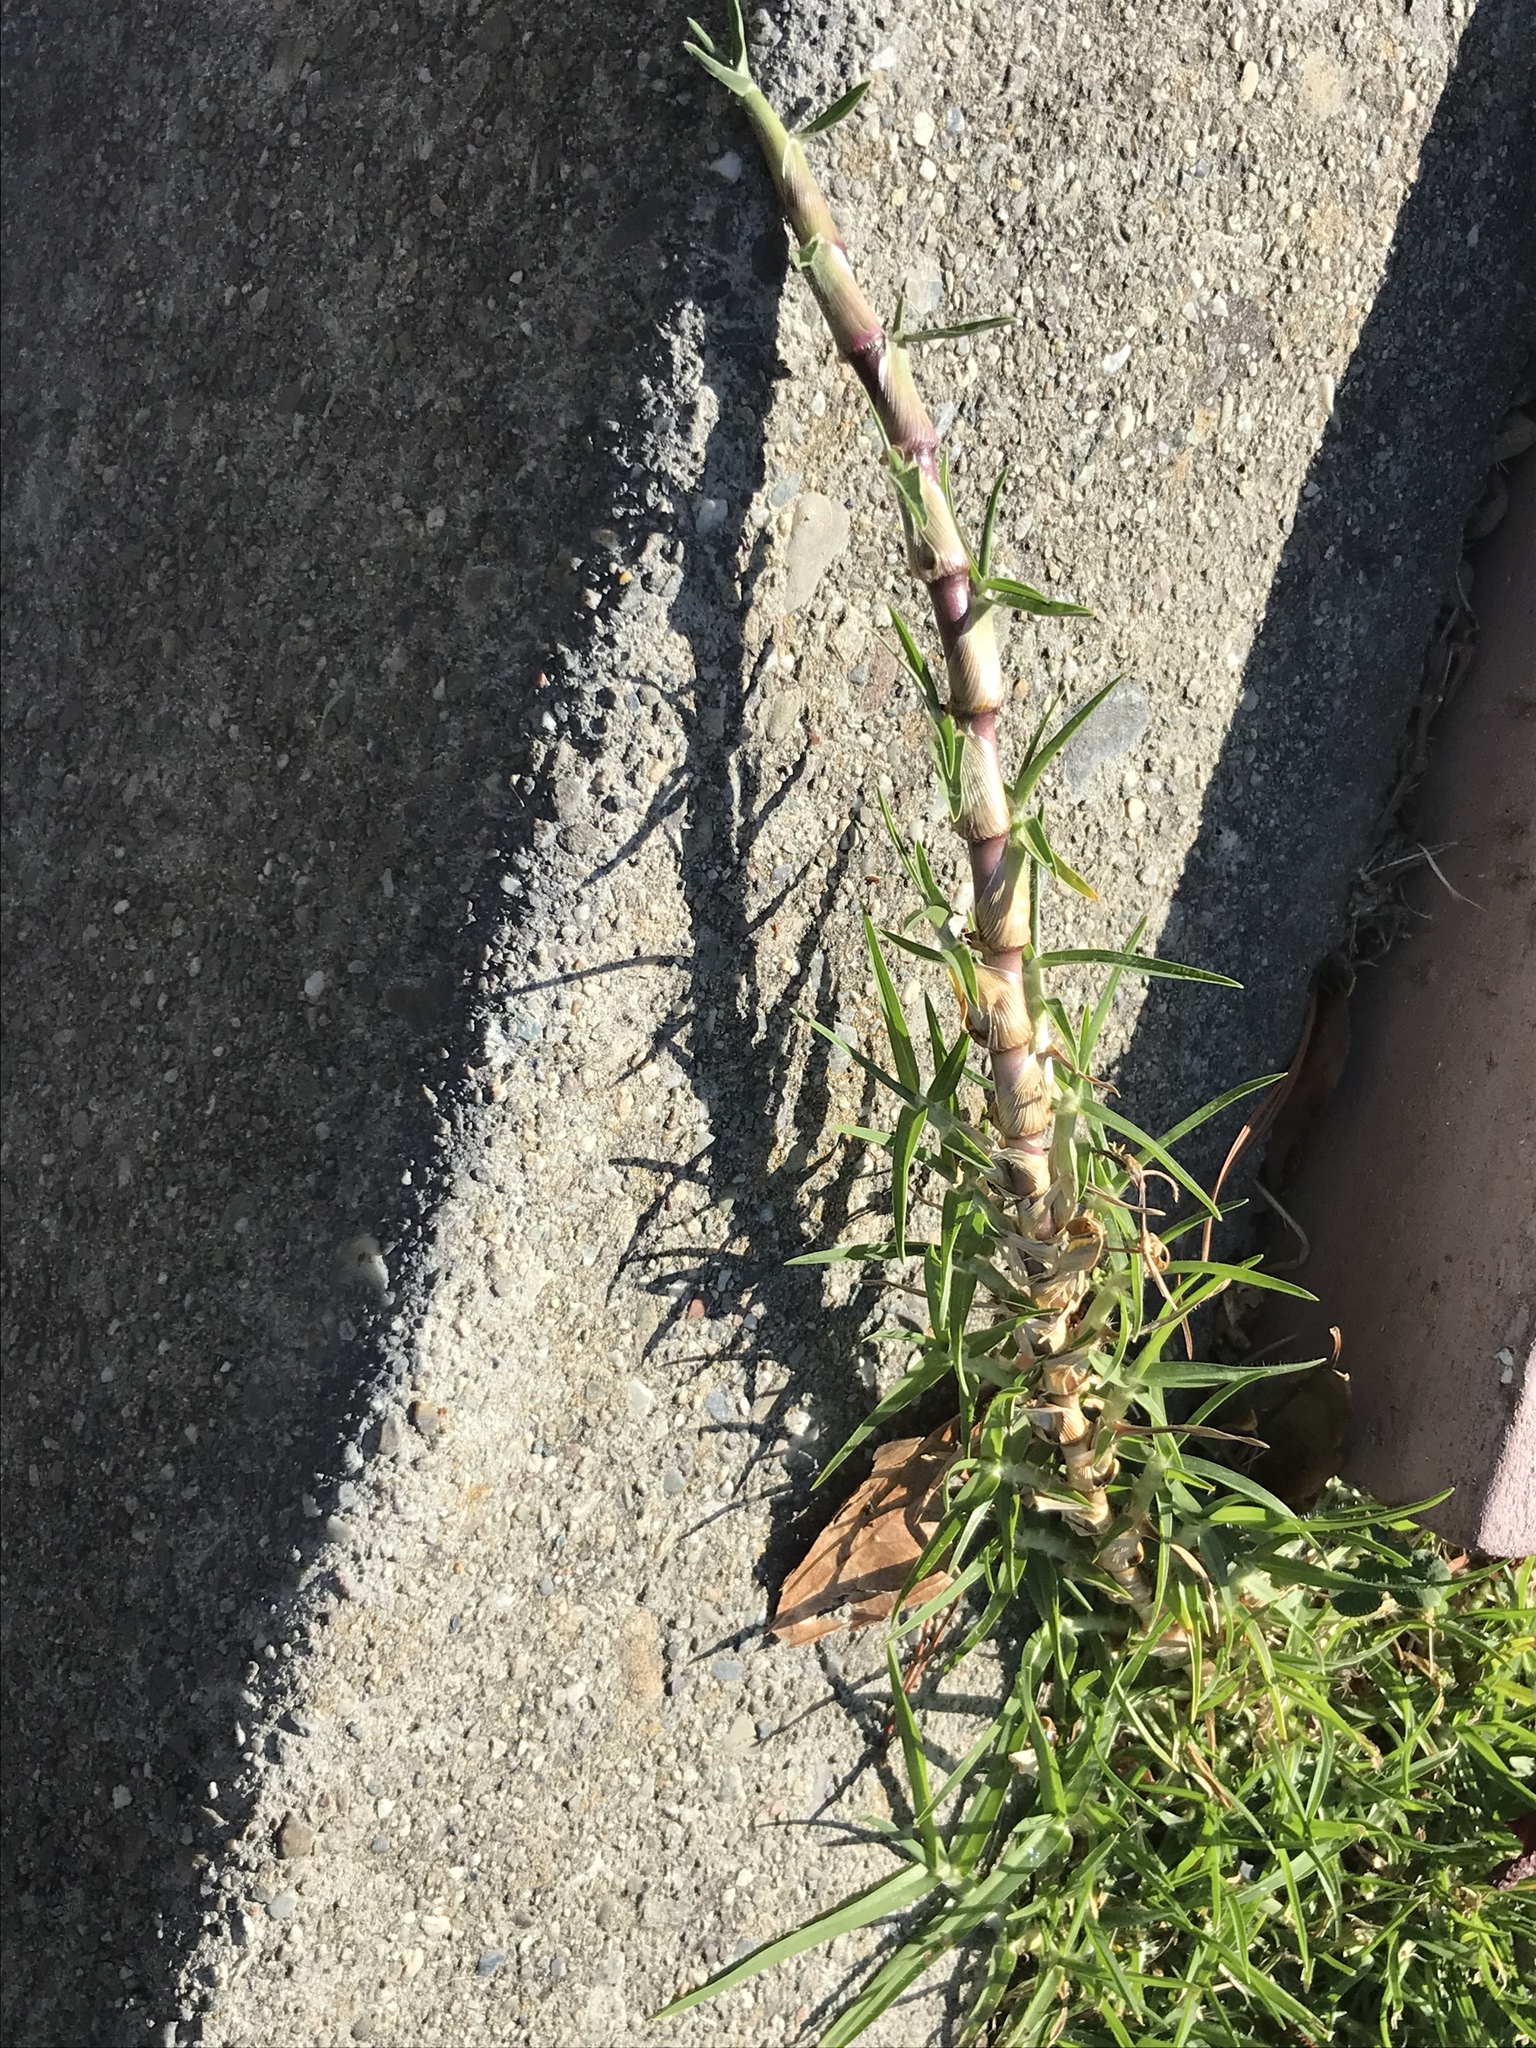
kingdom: Plantae
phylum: Tracheophyta
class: Liliopsida
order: Poales
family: Poaceae
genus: Cenchrus
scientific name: Cenchrus clandestinus
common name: Kikuyugrass
